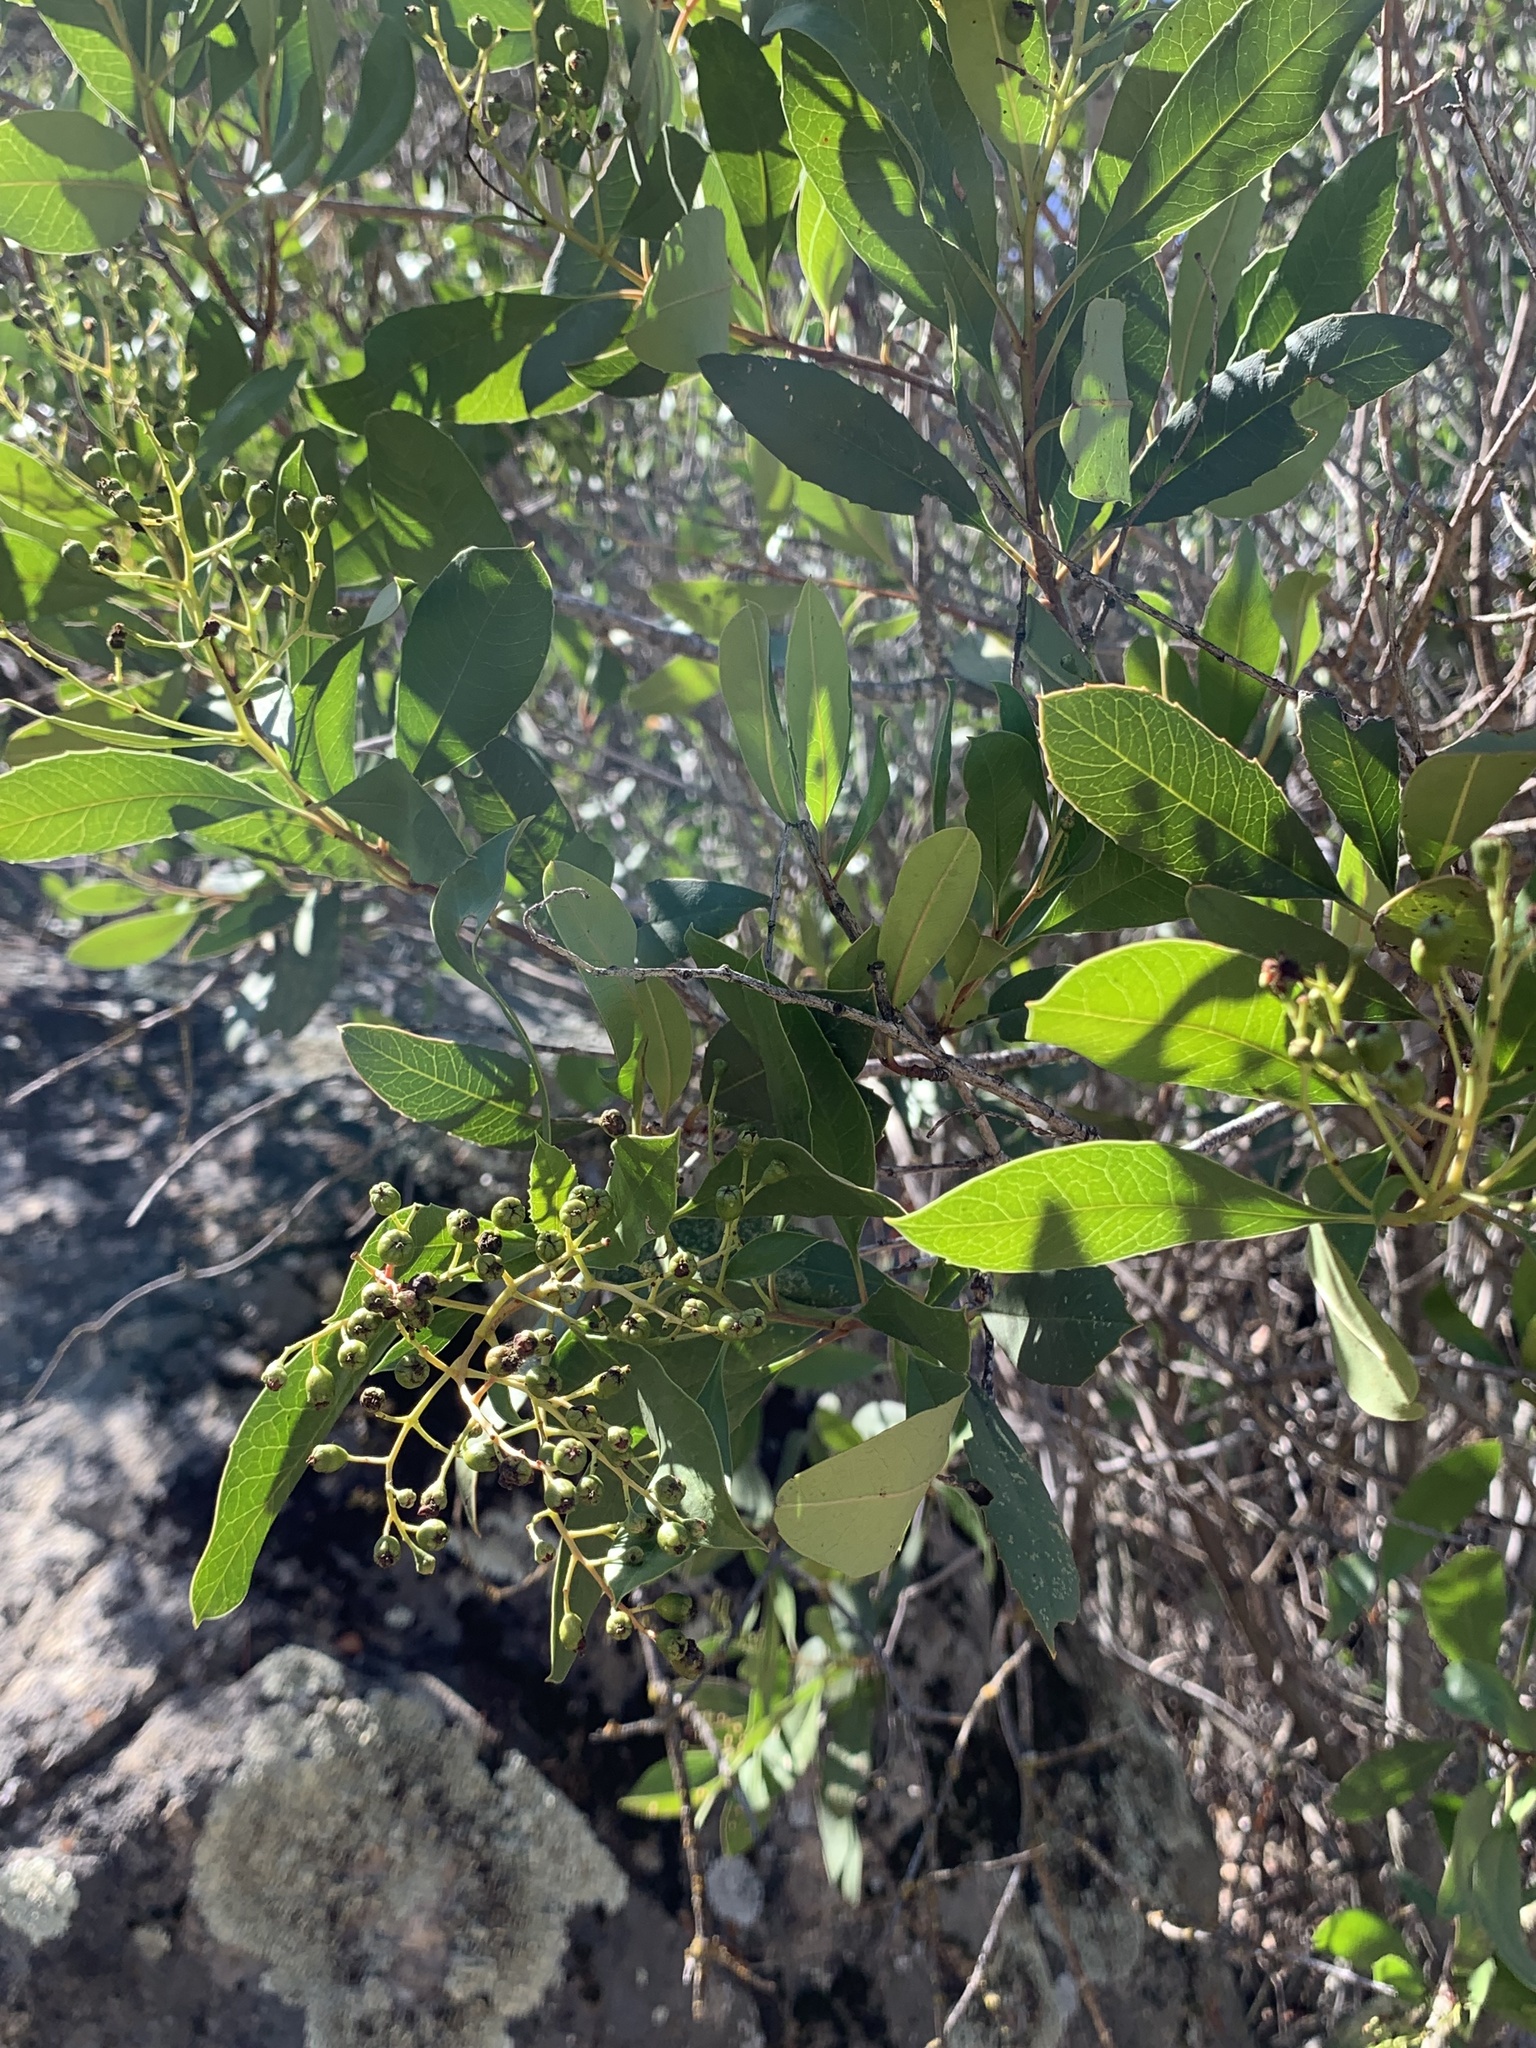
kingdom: Plantae
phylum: Tracheophyta
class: Magnoliopsida
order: Rosales
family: Rosaceae
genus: Heteromeles
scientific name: Heteromeles arbutifolia
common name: California-holly
